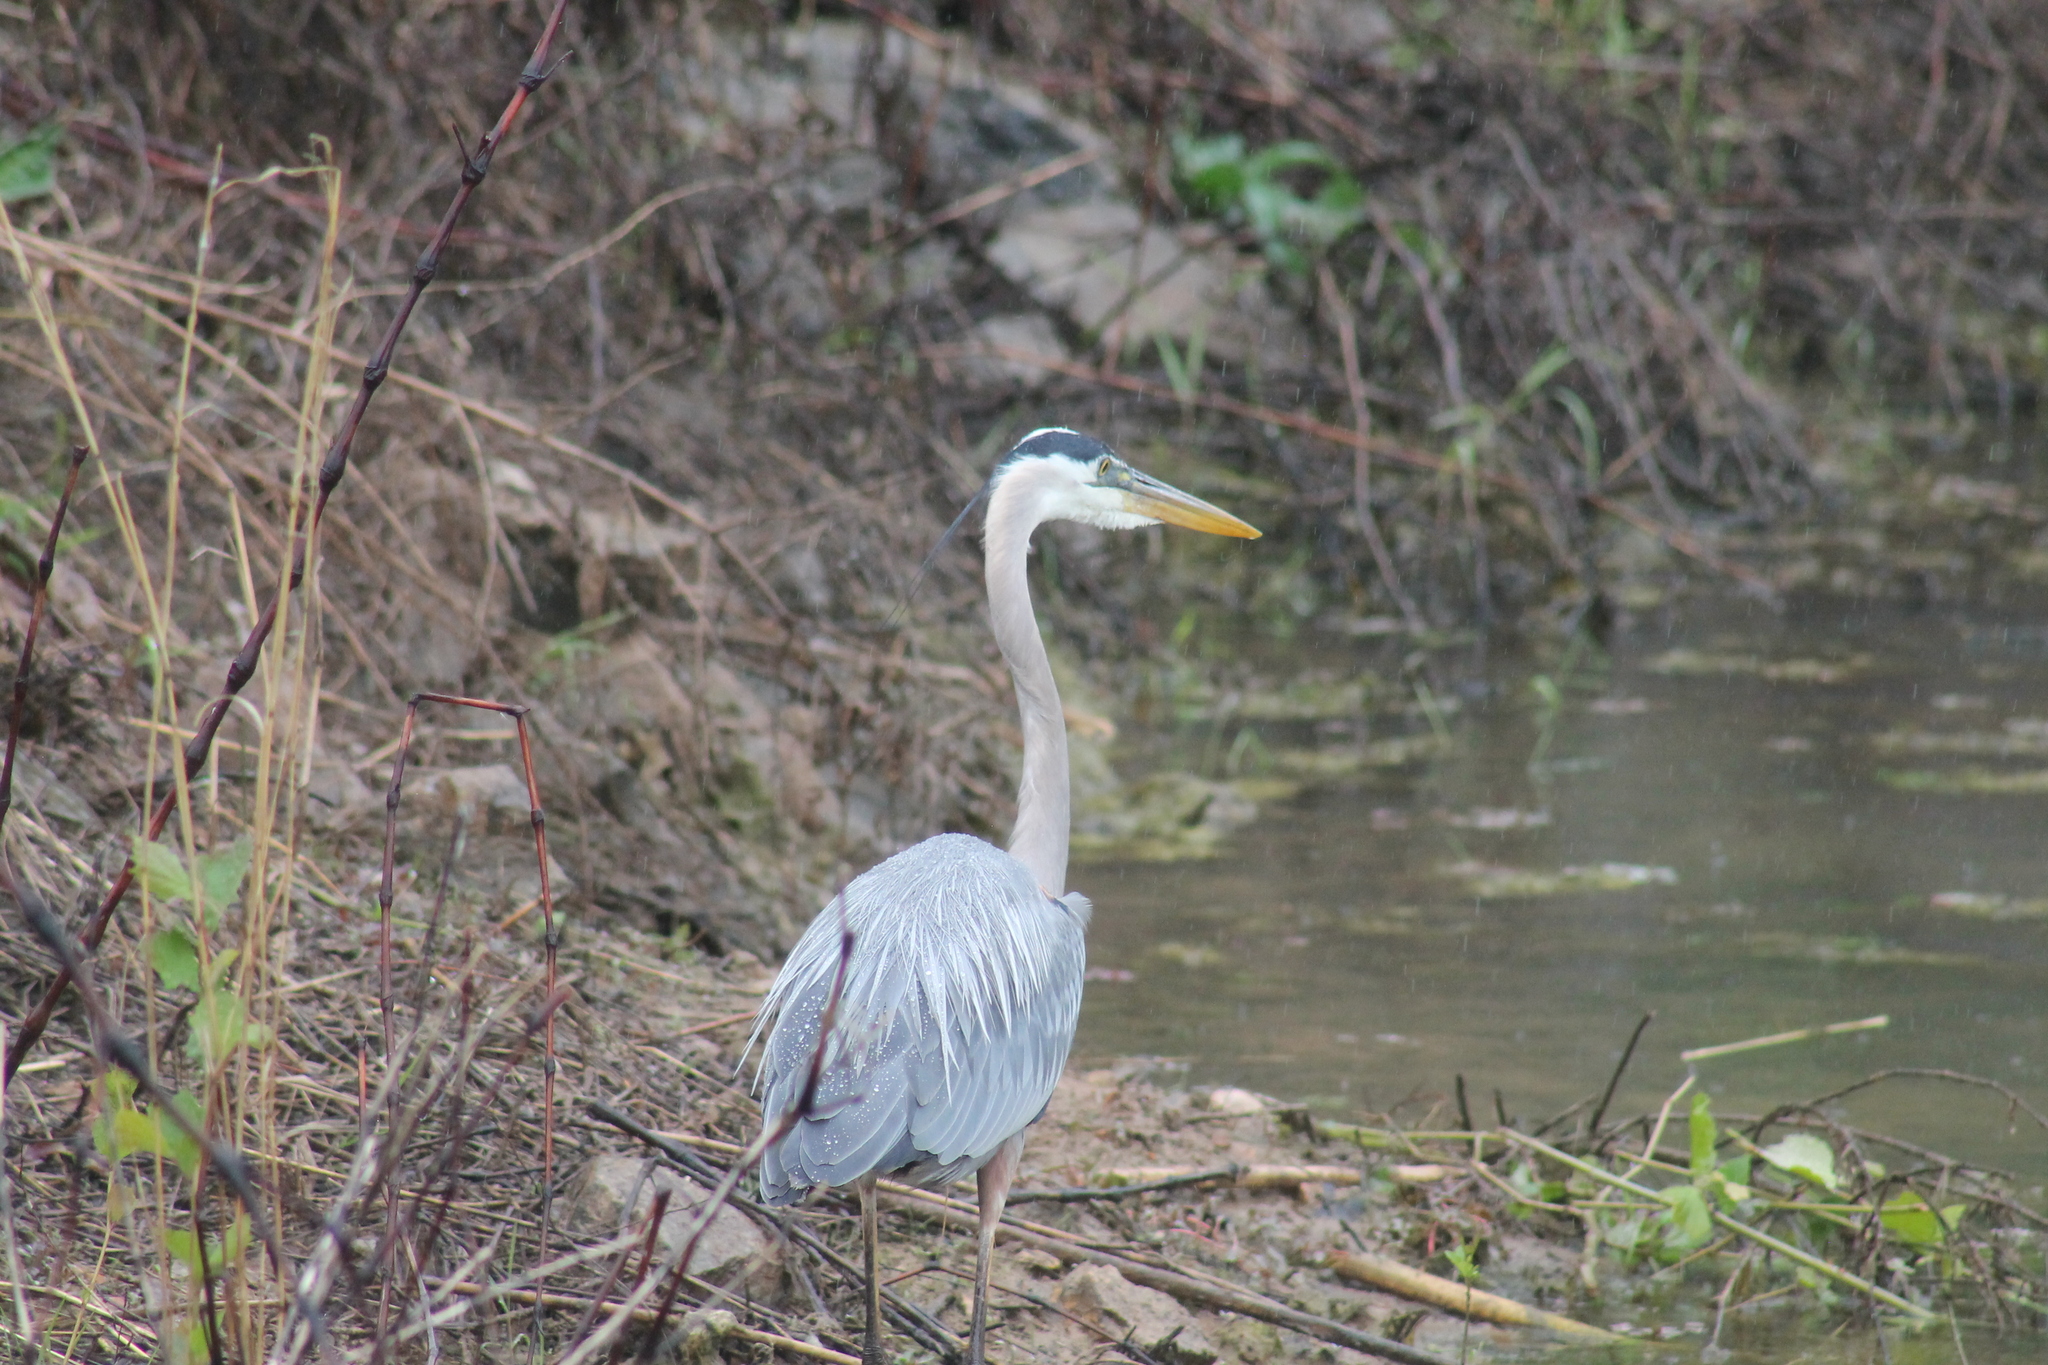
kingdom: Animalia
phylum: Chordata
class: Aves
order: Pelecaniformes
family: Ardeidae
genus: Ardea
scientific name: Ardea herodias
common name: Great blue heron
